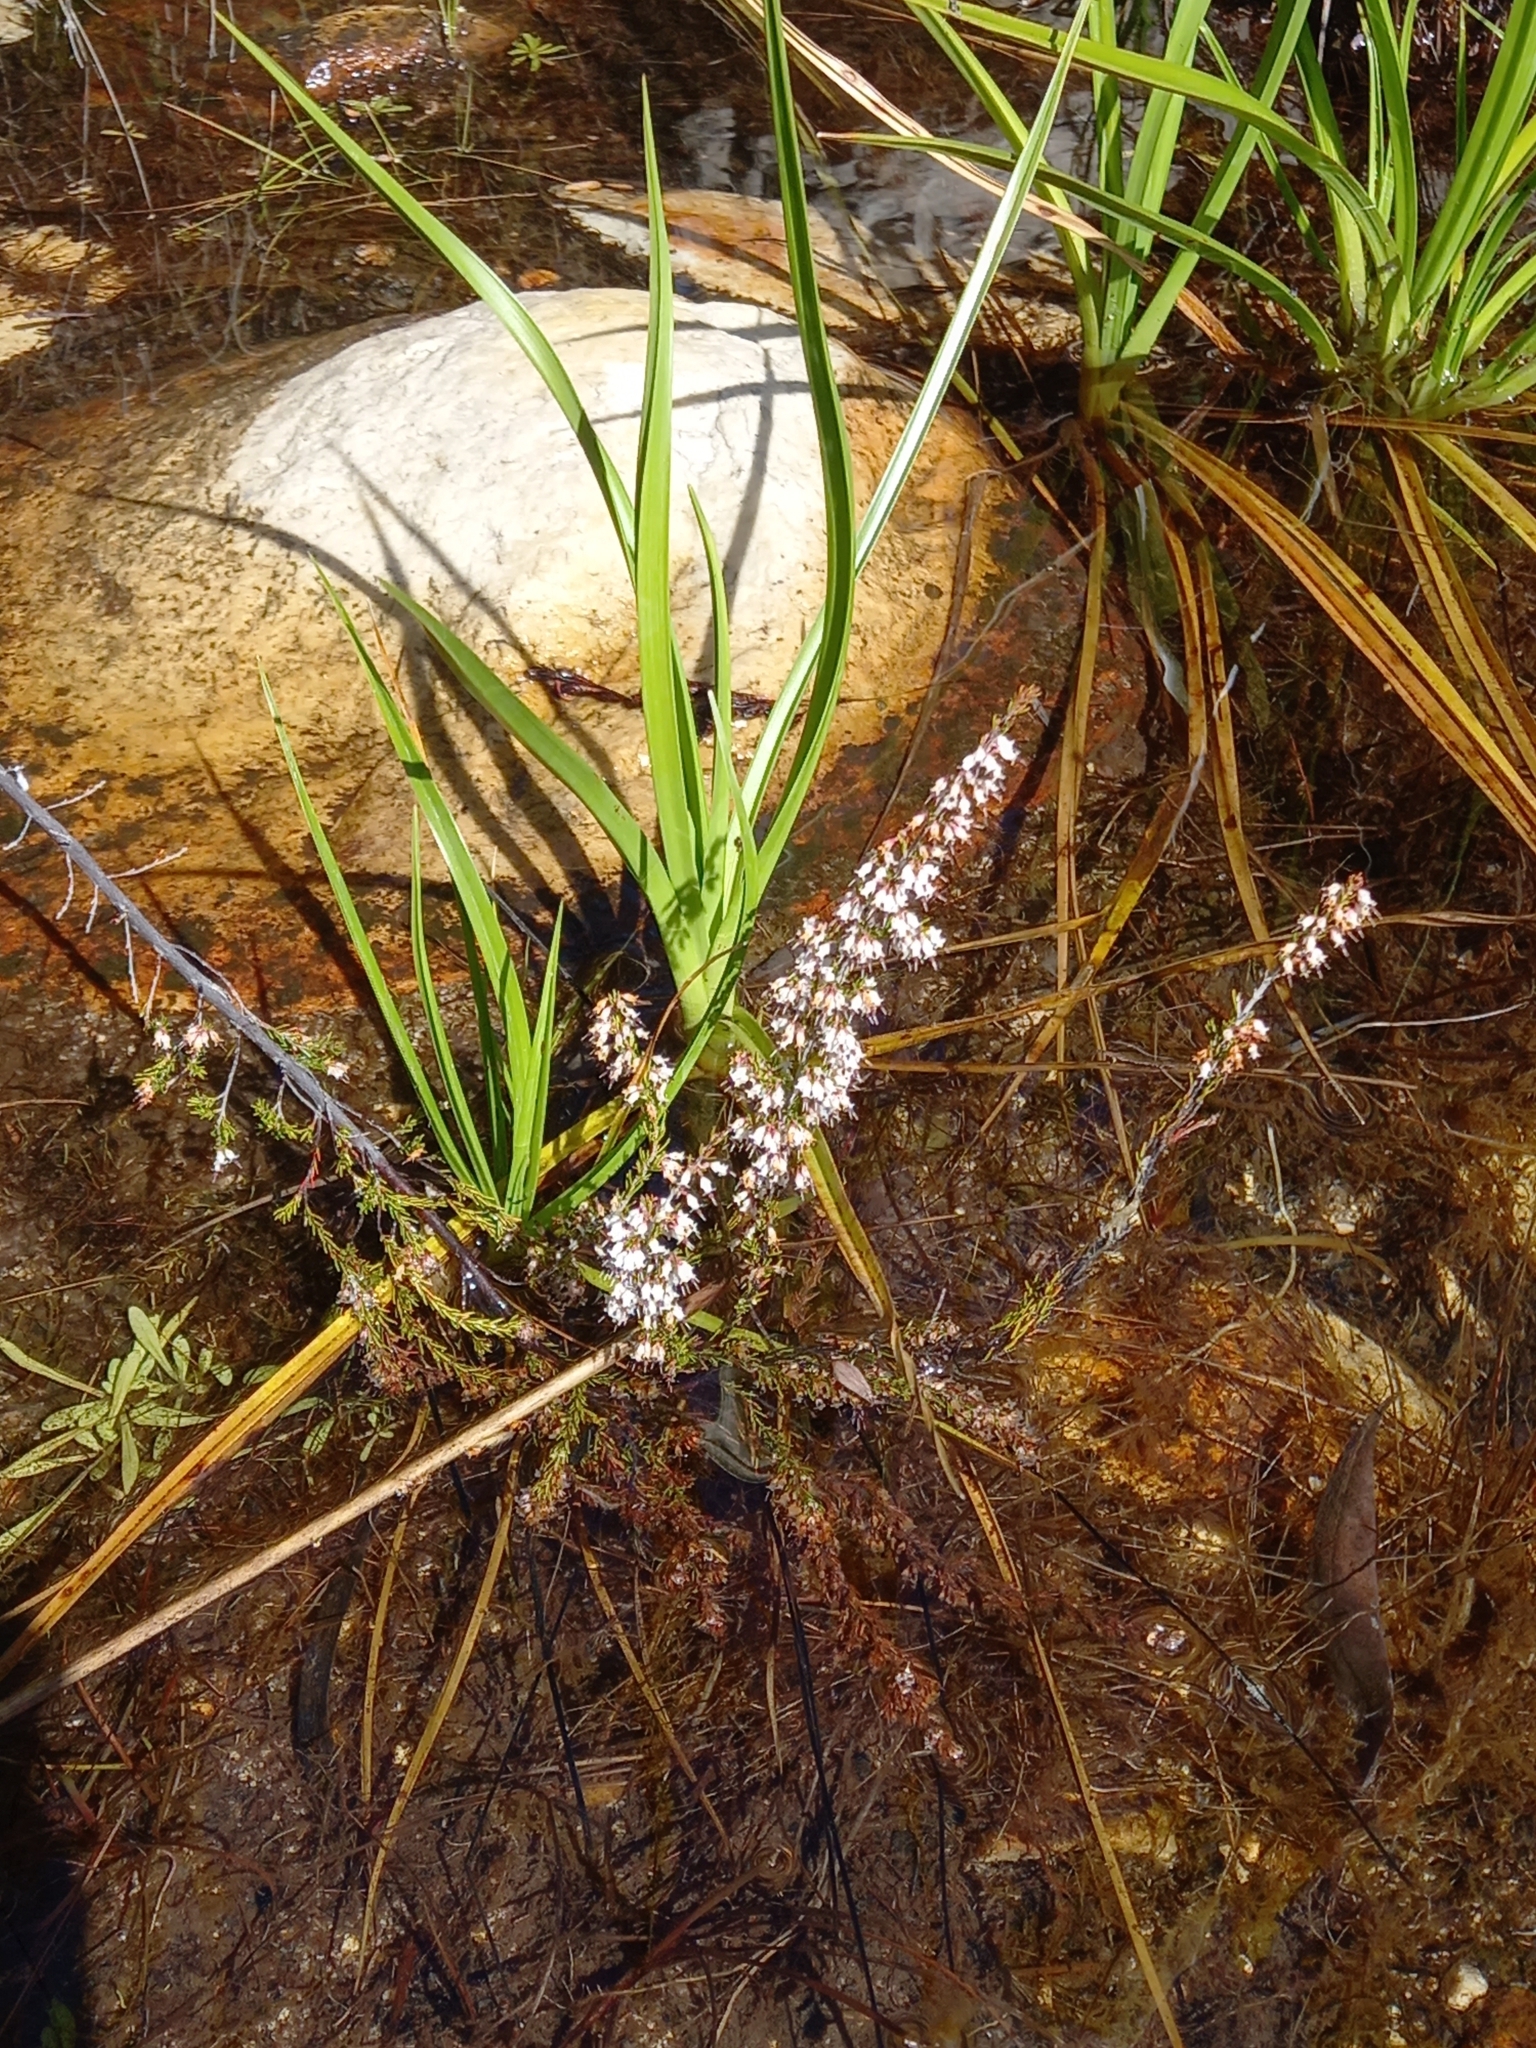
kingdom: Plantae
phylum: Tracheophyta
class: Magnoliopsida
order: Ericales
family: Ericaceae
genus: Erica
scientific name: Erica fuscescens
